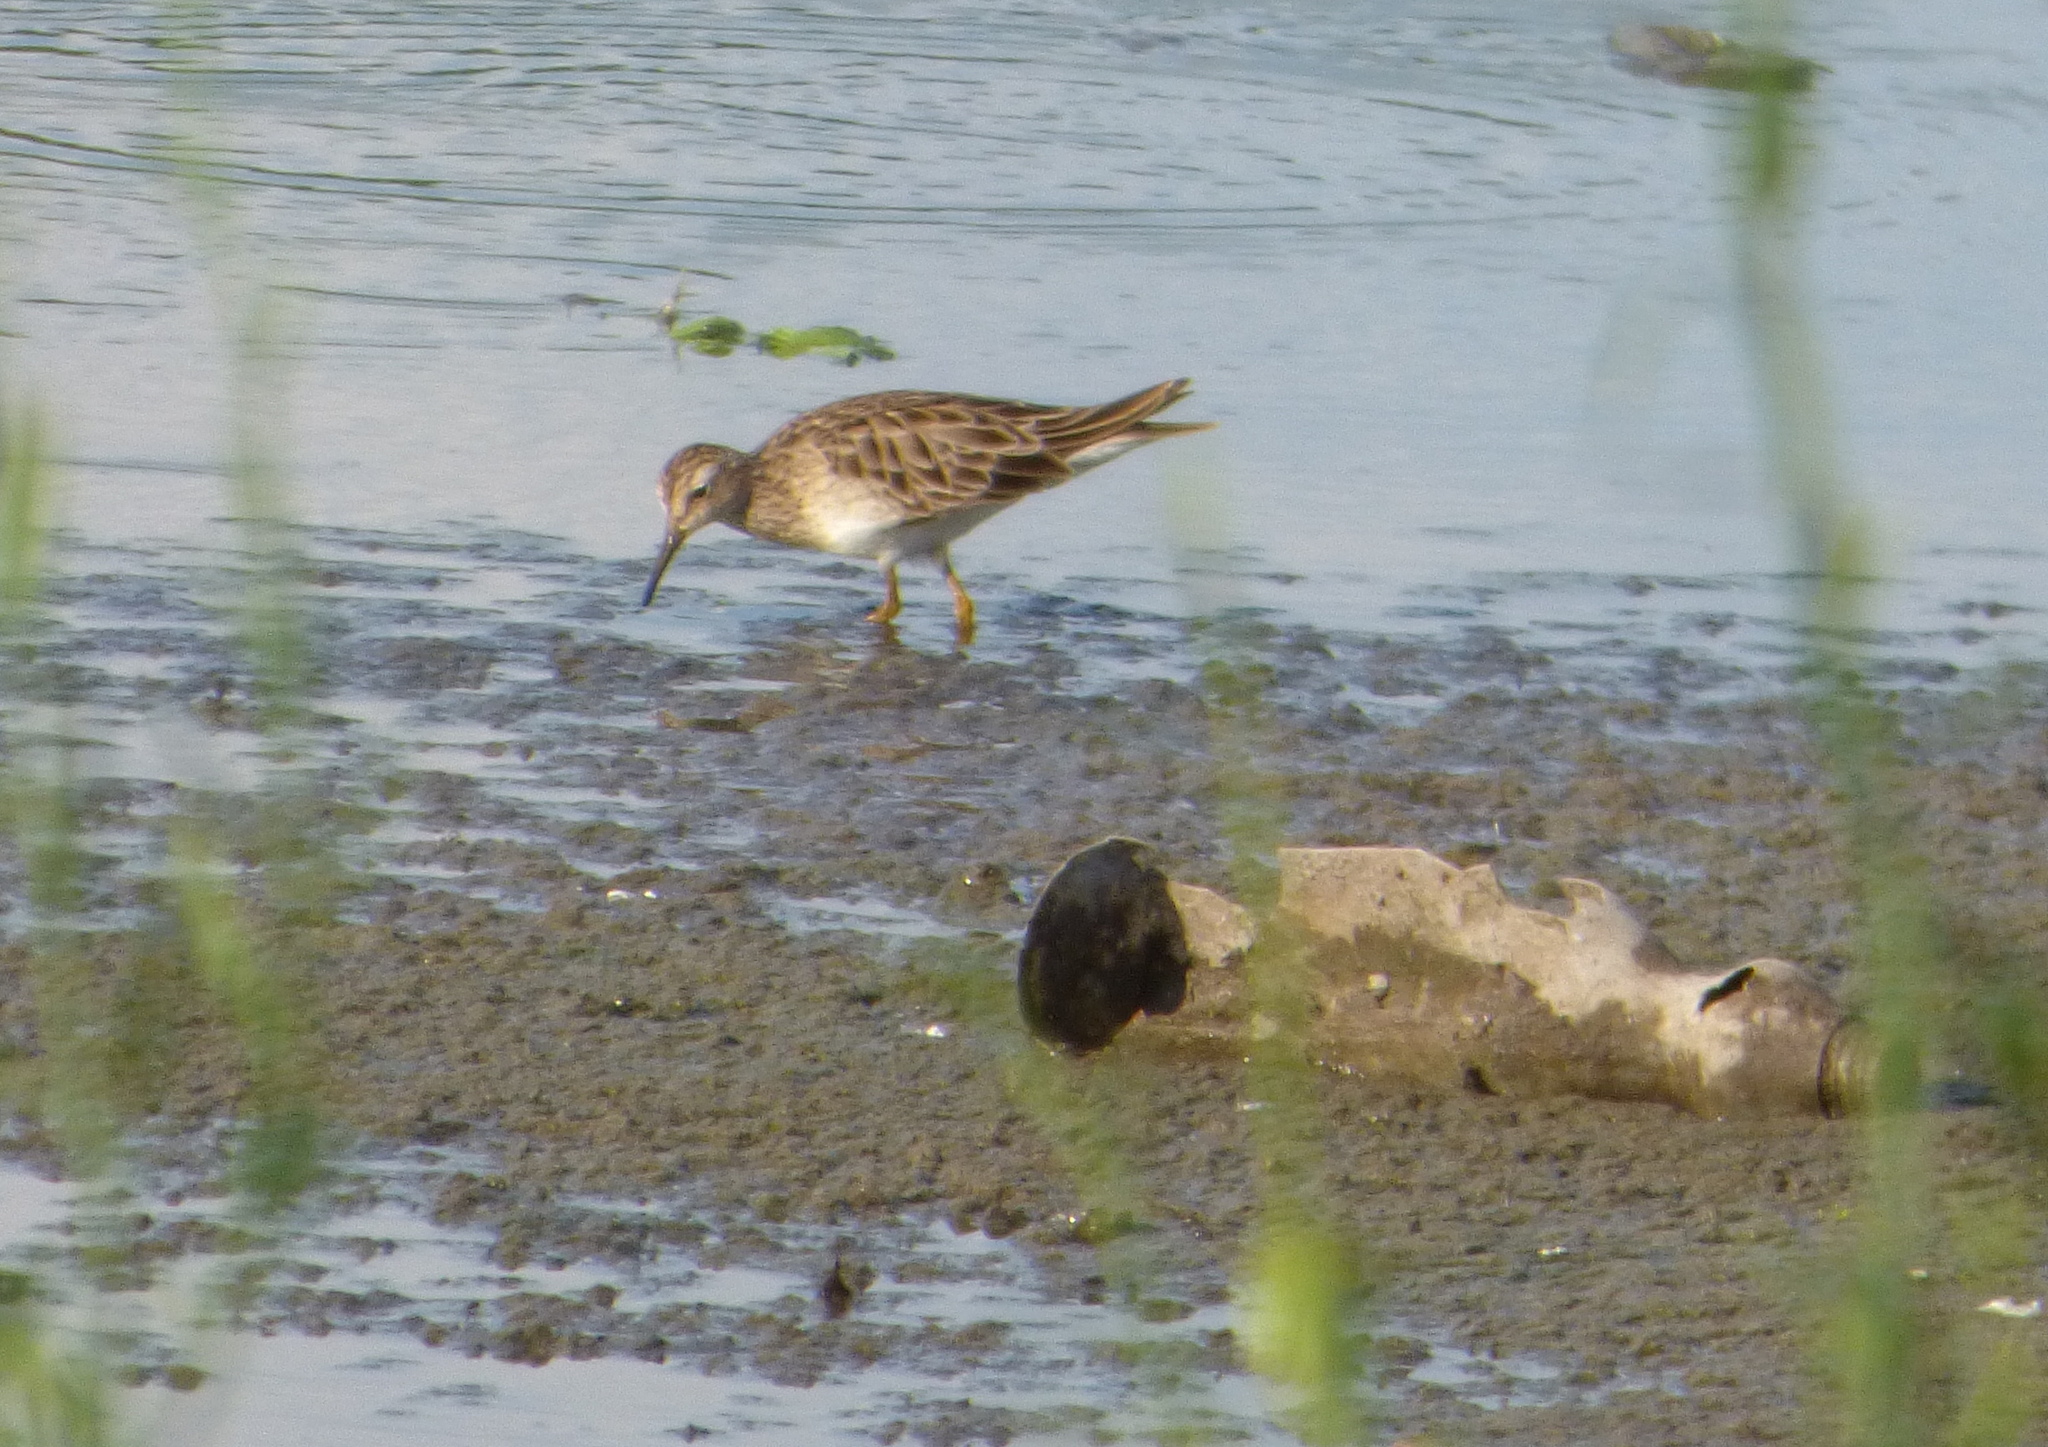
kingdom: Animalia
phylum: Chordata
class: Aves
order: Charadriiformes
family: Scolopacidae
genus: Calidris
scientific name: Calidris melanotos
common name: Pectoral sandpiper
